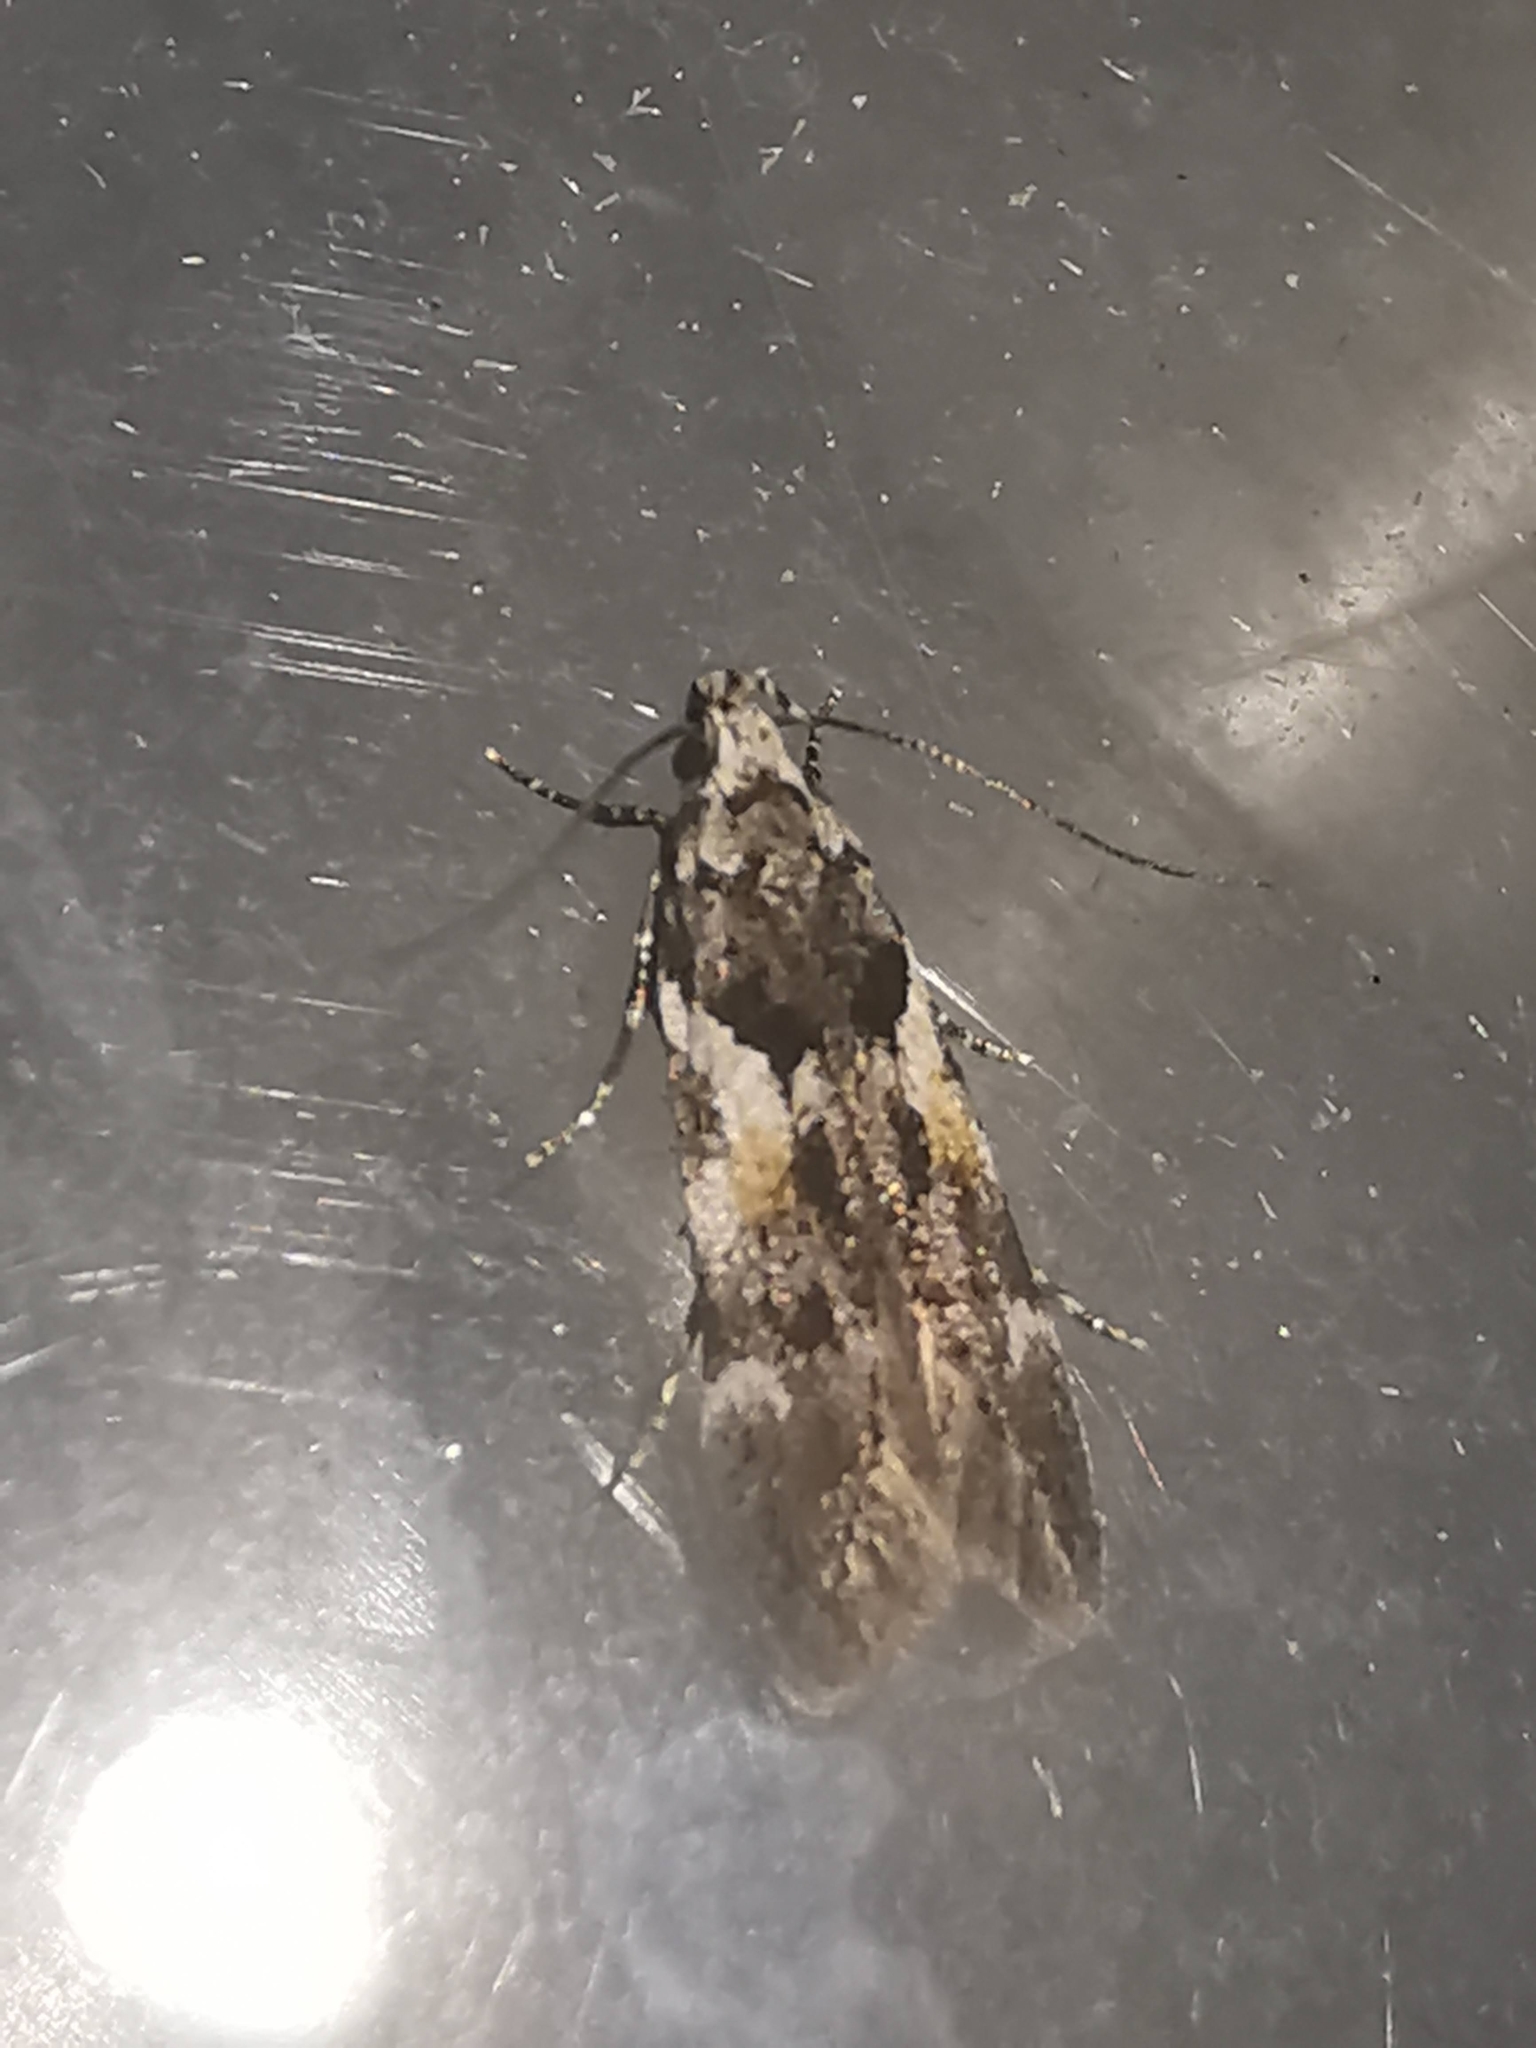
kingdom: Animalia
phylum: Arthropoda
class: Insecta
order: Lepidoptera
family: Gelechiidae
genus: Teleiodes
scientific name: Teleiodes luculella
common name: Crescent groundling
